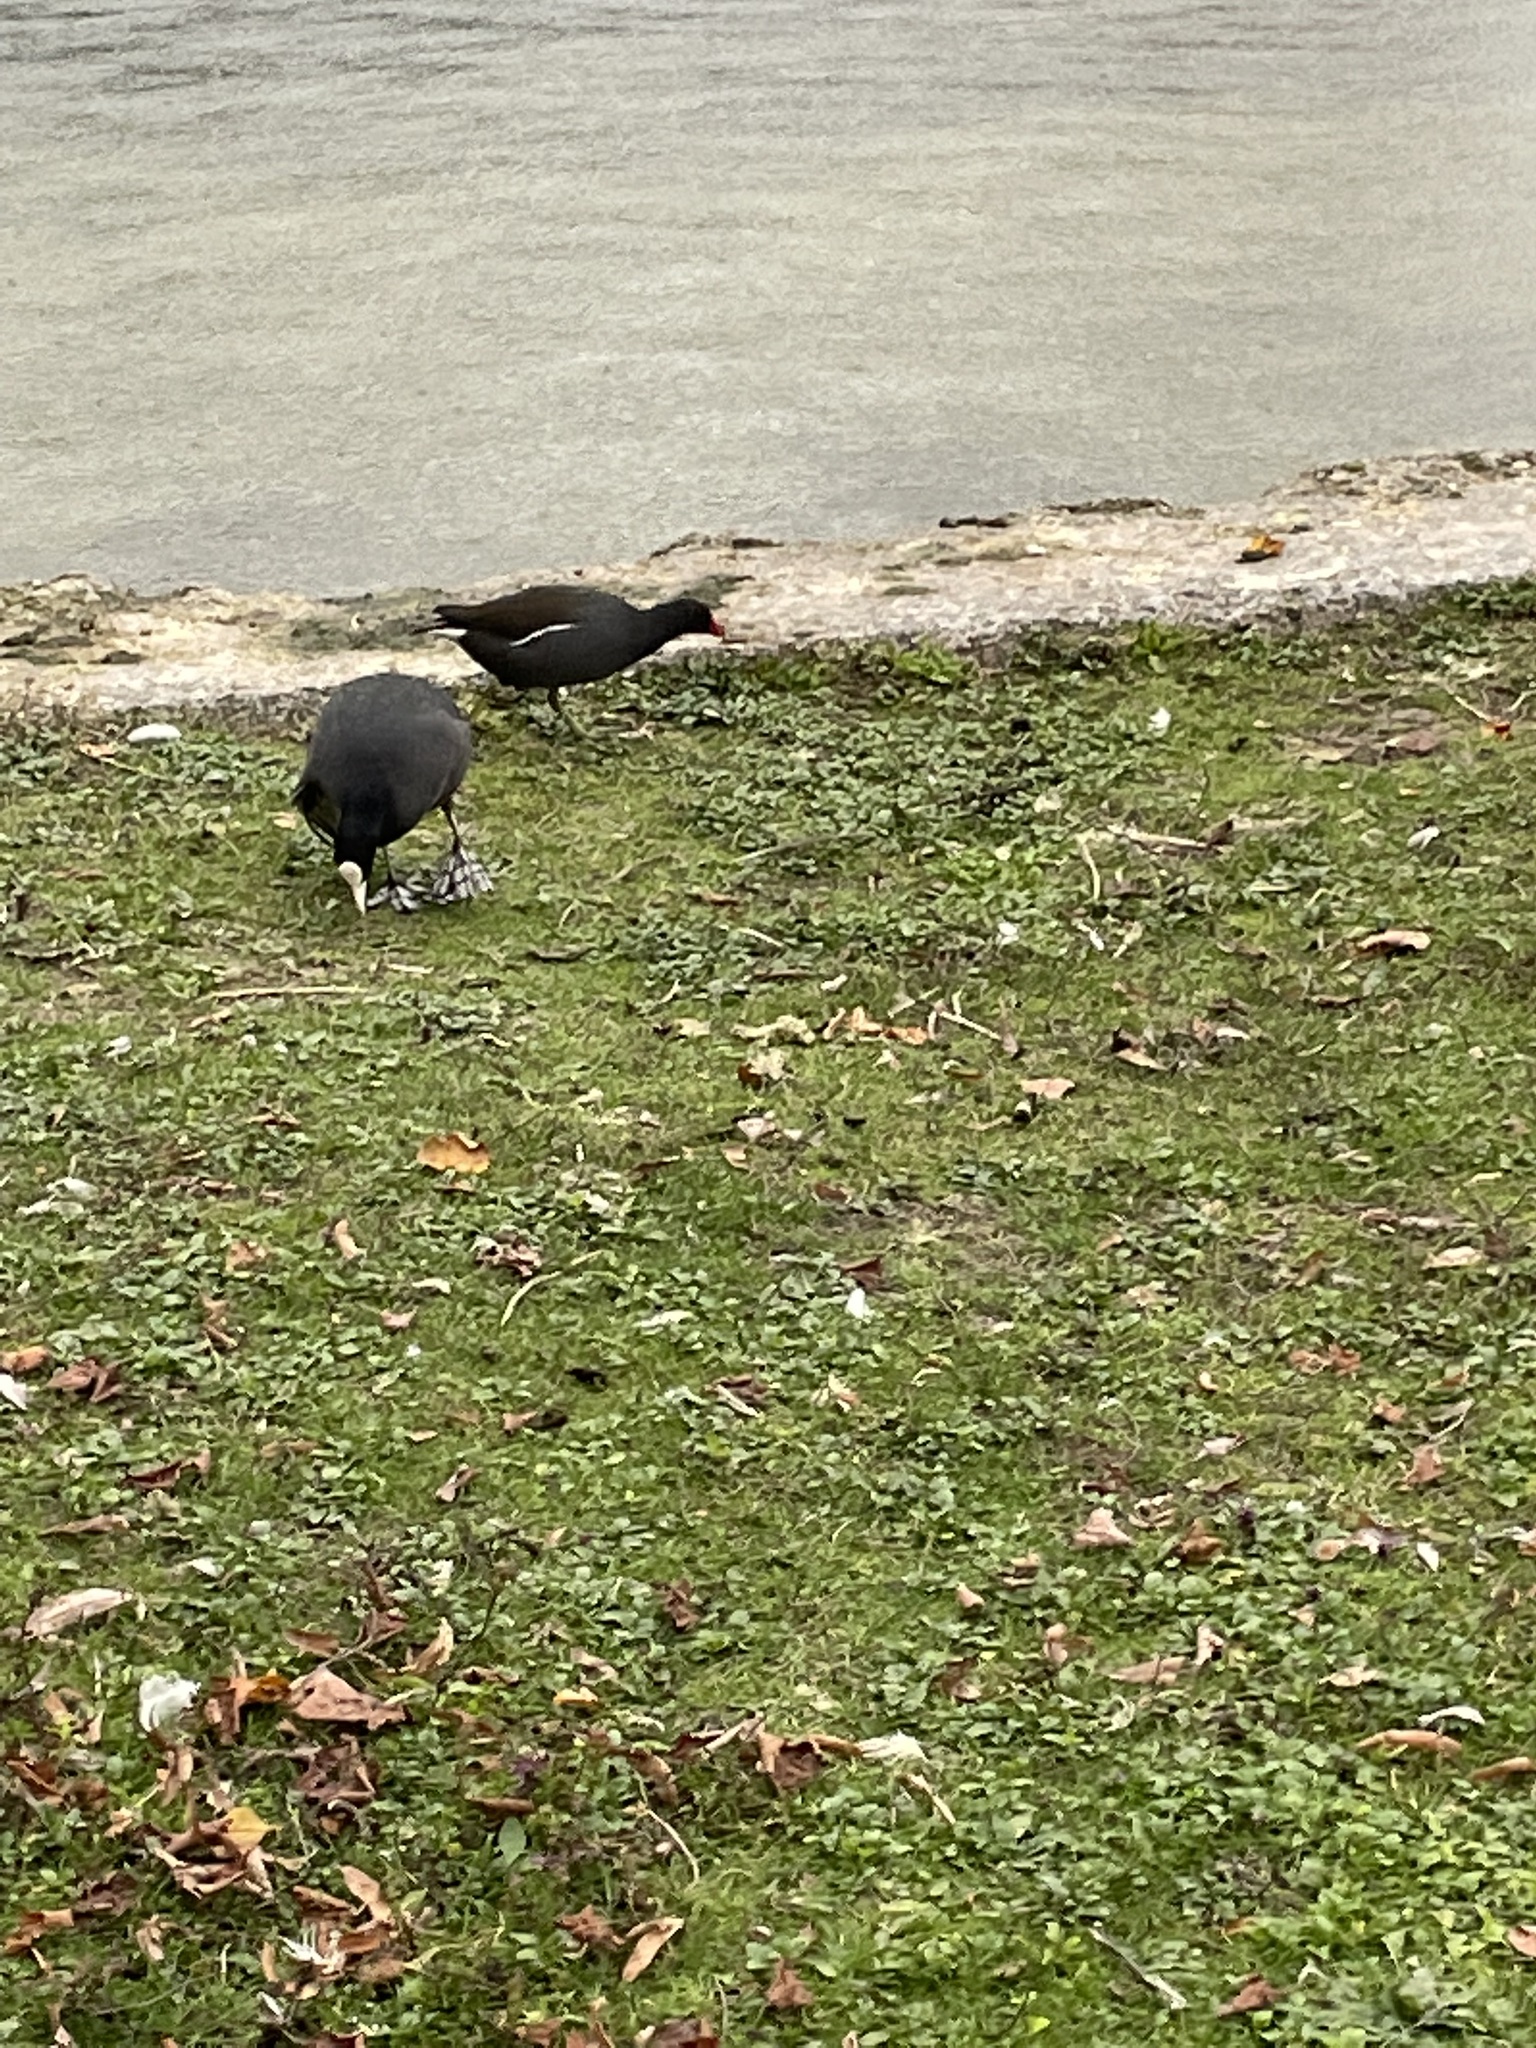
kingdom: Animalia
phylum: Chordata
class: Aves
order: Gruiformes
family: Rallidae
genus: Fulica
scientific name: Fulica atra
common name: Eurasian coot
